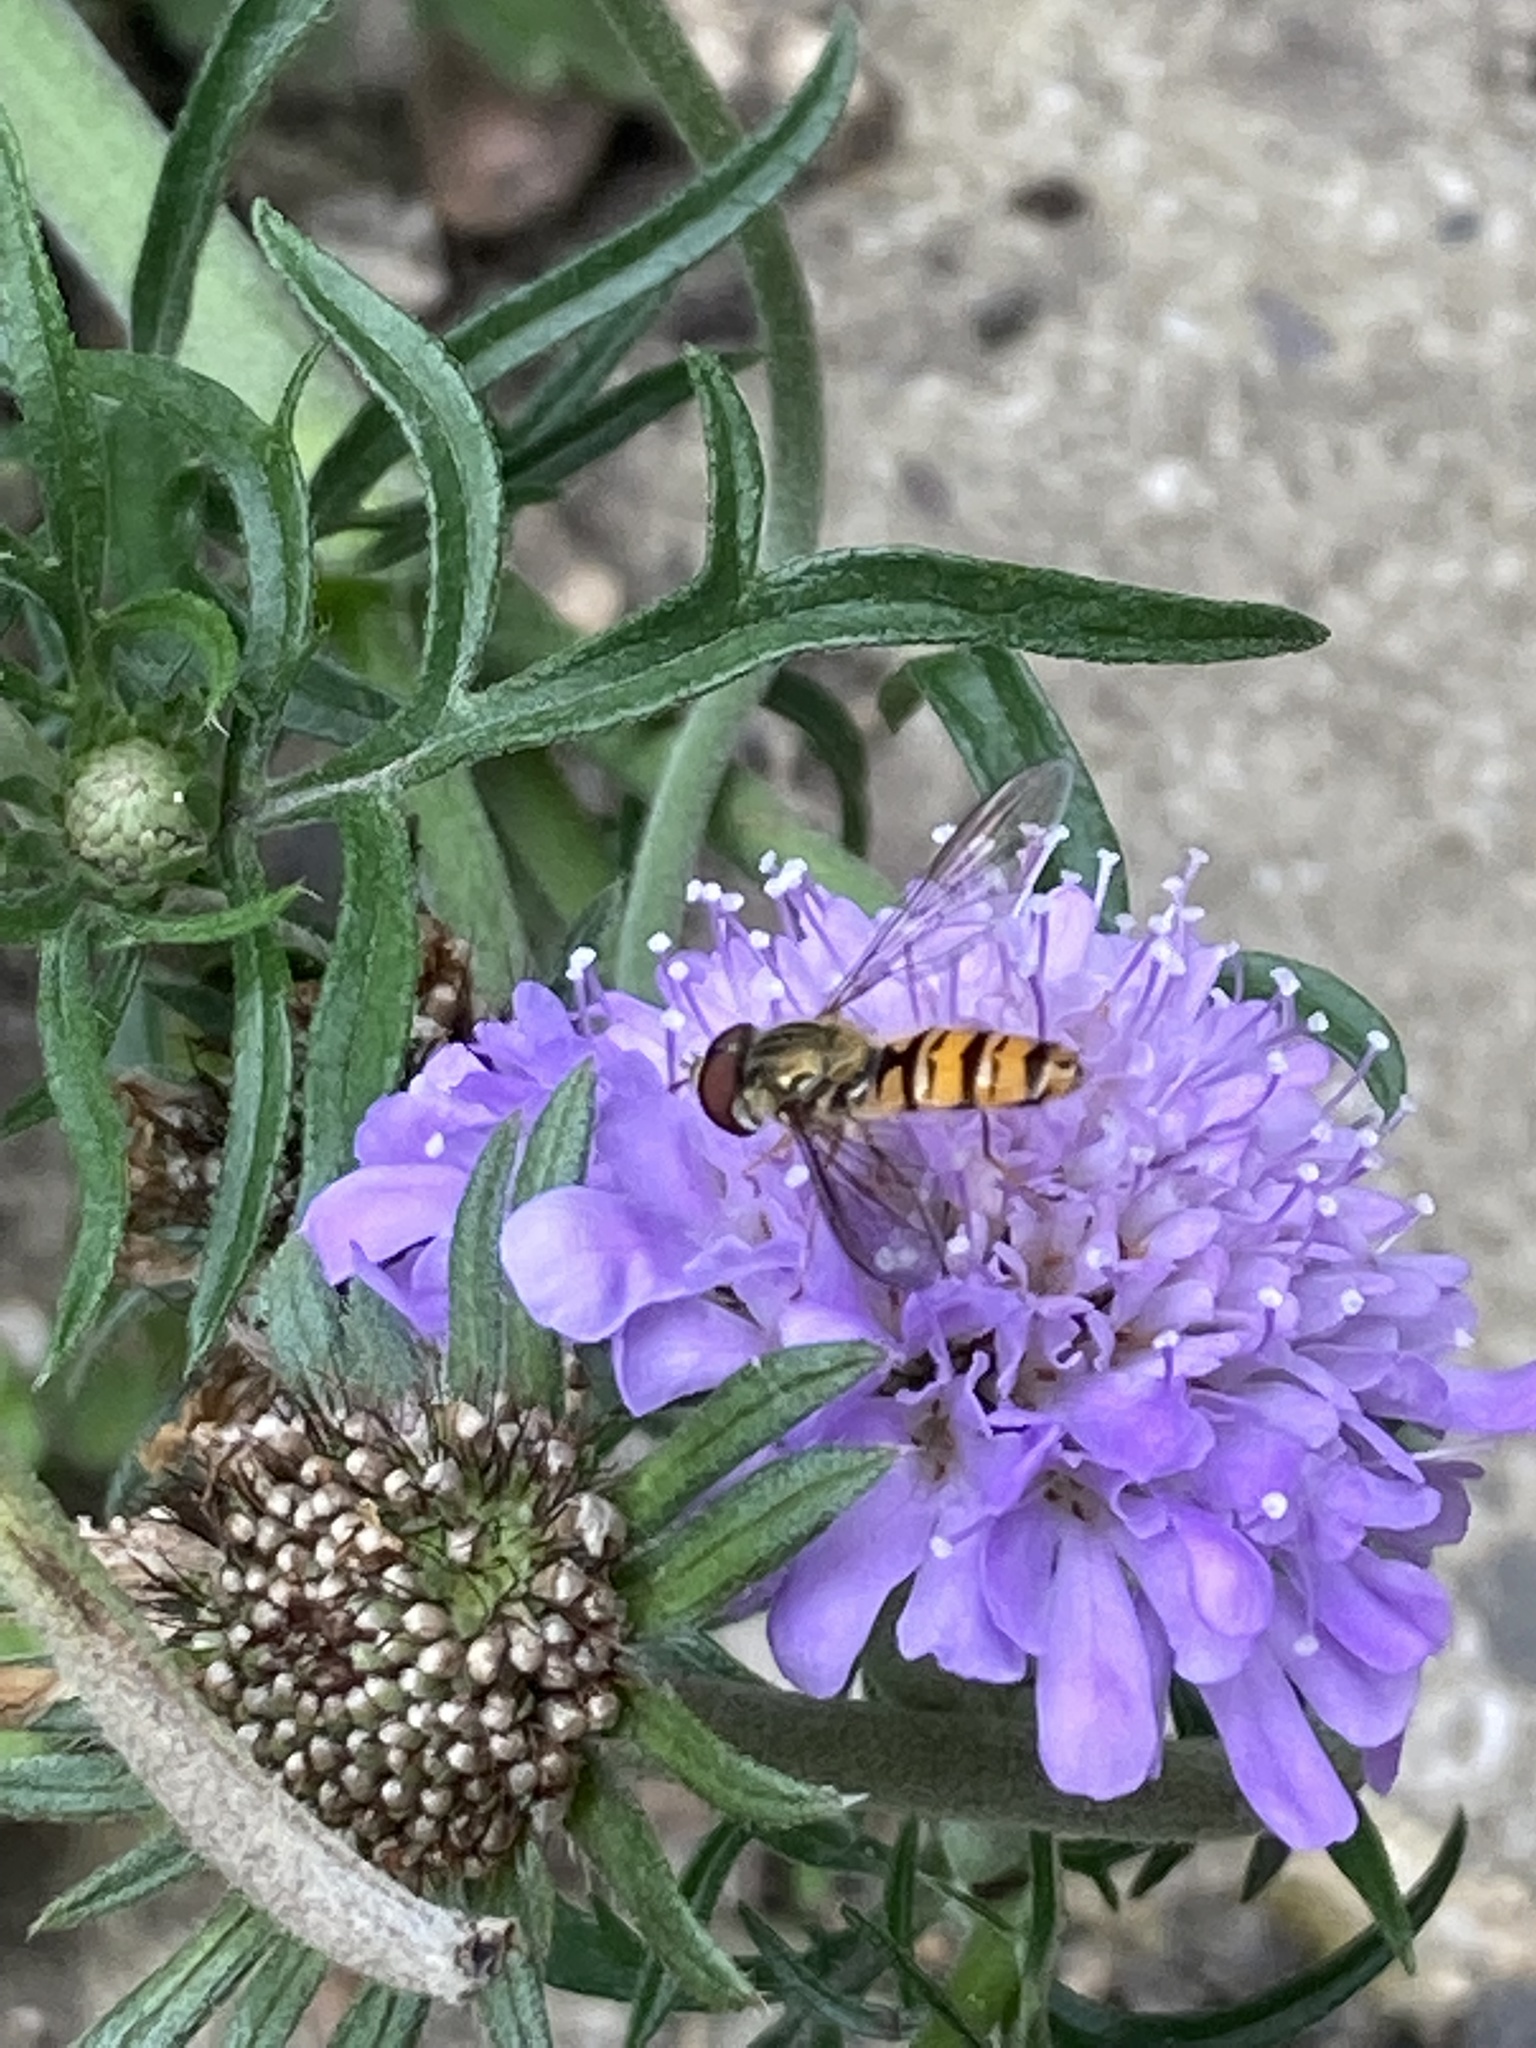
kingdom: Animalia
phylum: Arthropoda
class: Insecta
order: Diptera
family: Syrphidae
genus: Episyrphus
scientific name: Episyrphus balteatus
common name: Marmalade hoverfly
